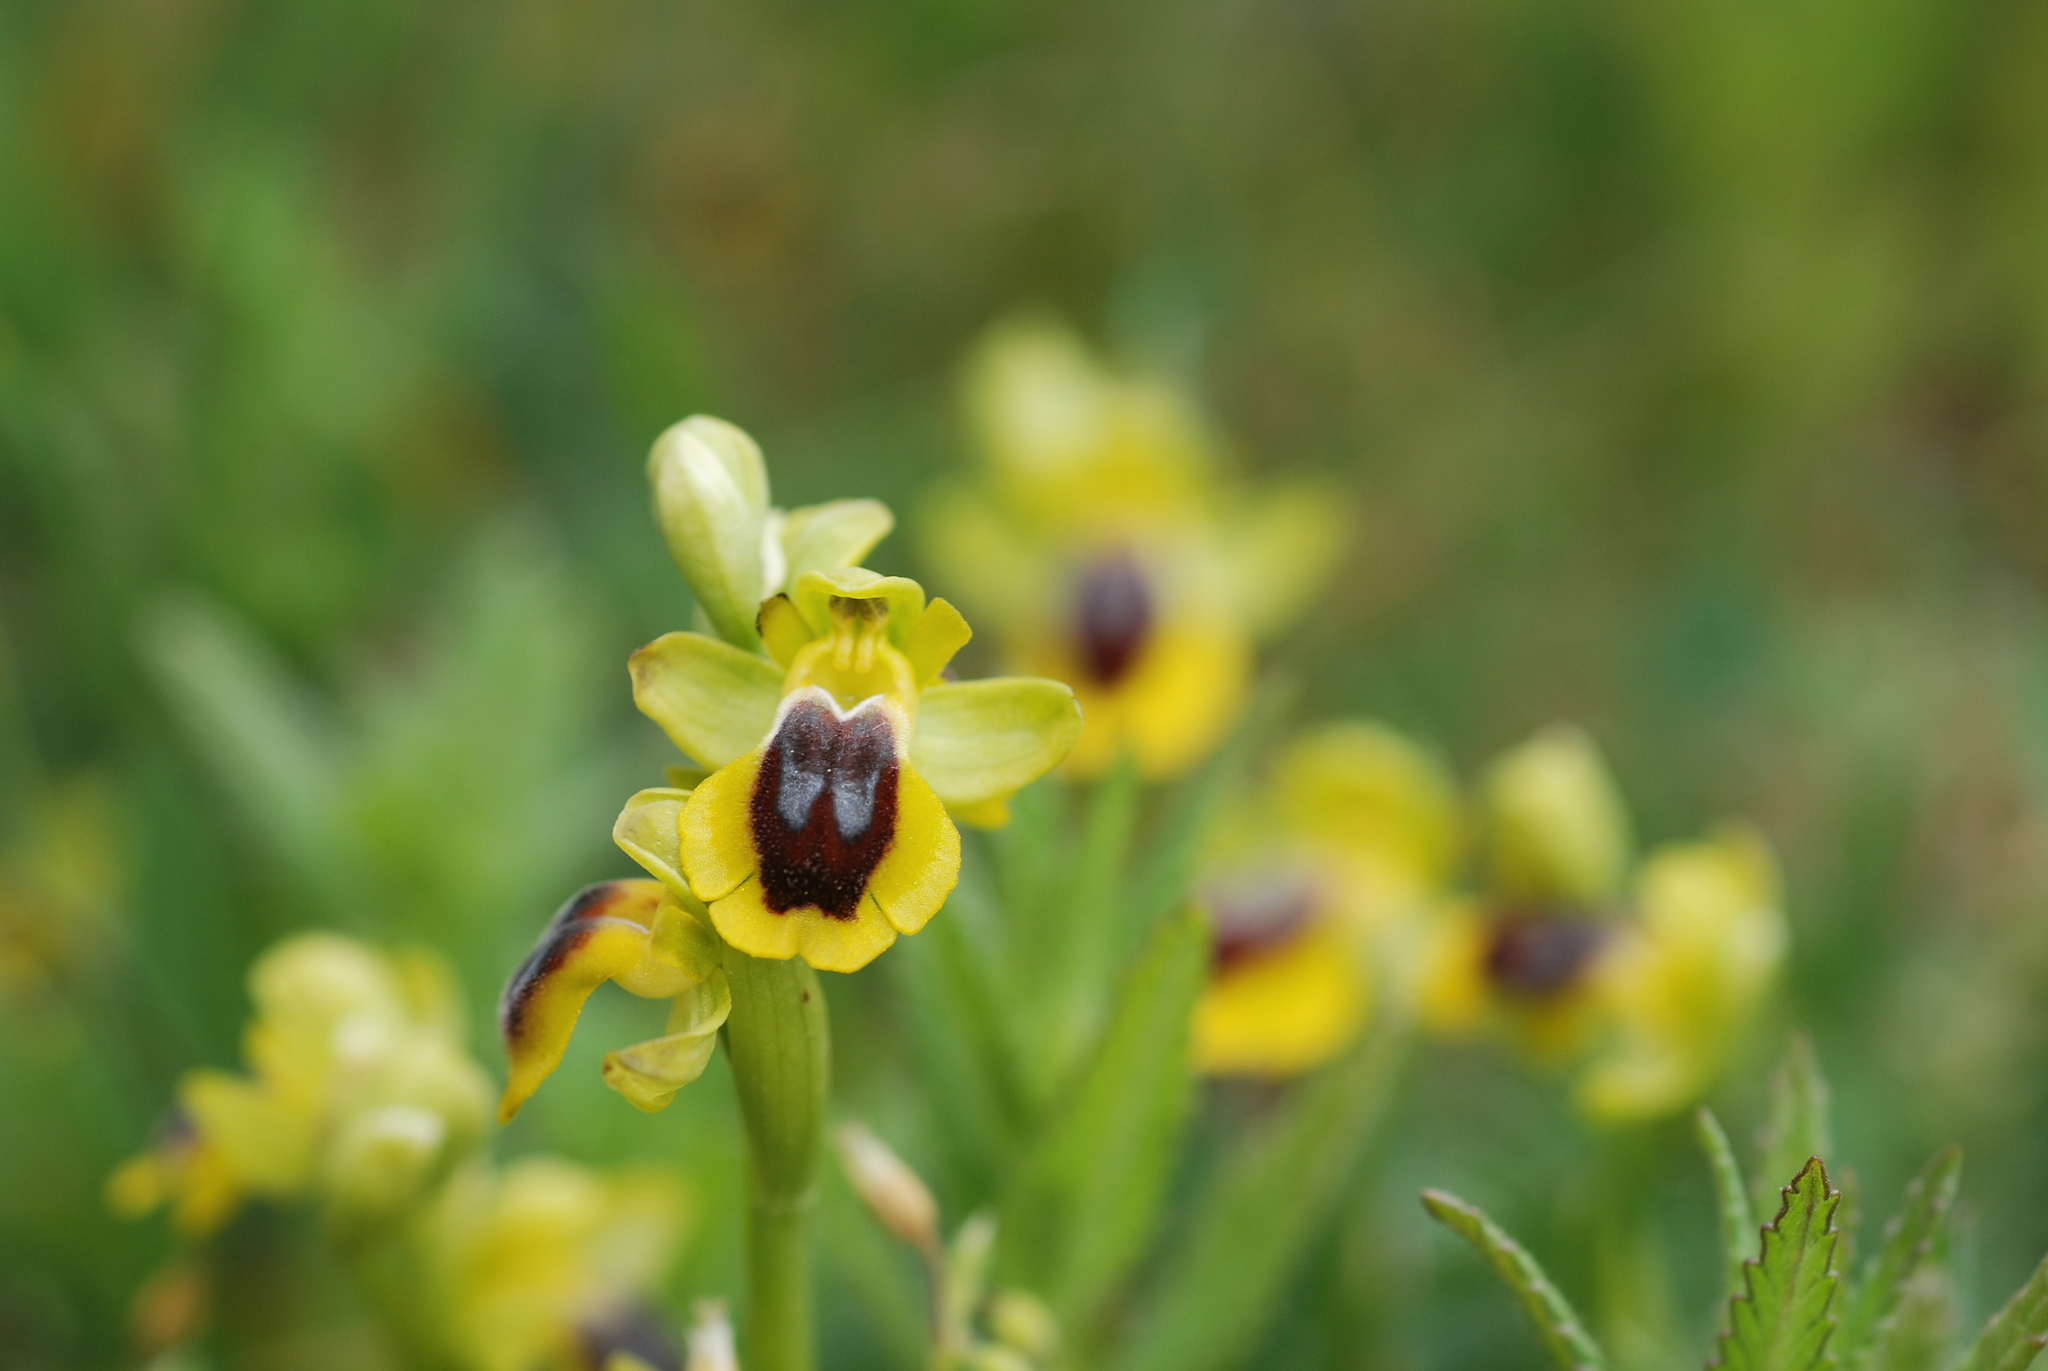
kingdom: Plantae
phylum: Tracheophyta
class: Liliopsida
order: Asparagales
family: Orchidaceae
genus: Ophrys
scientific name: Ophrys lutea
